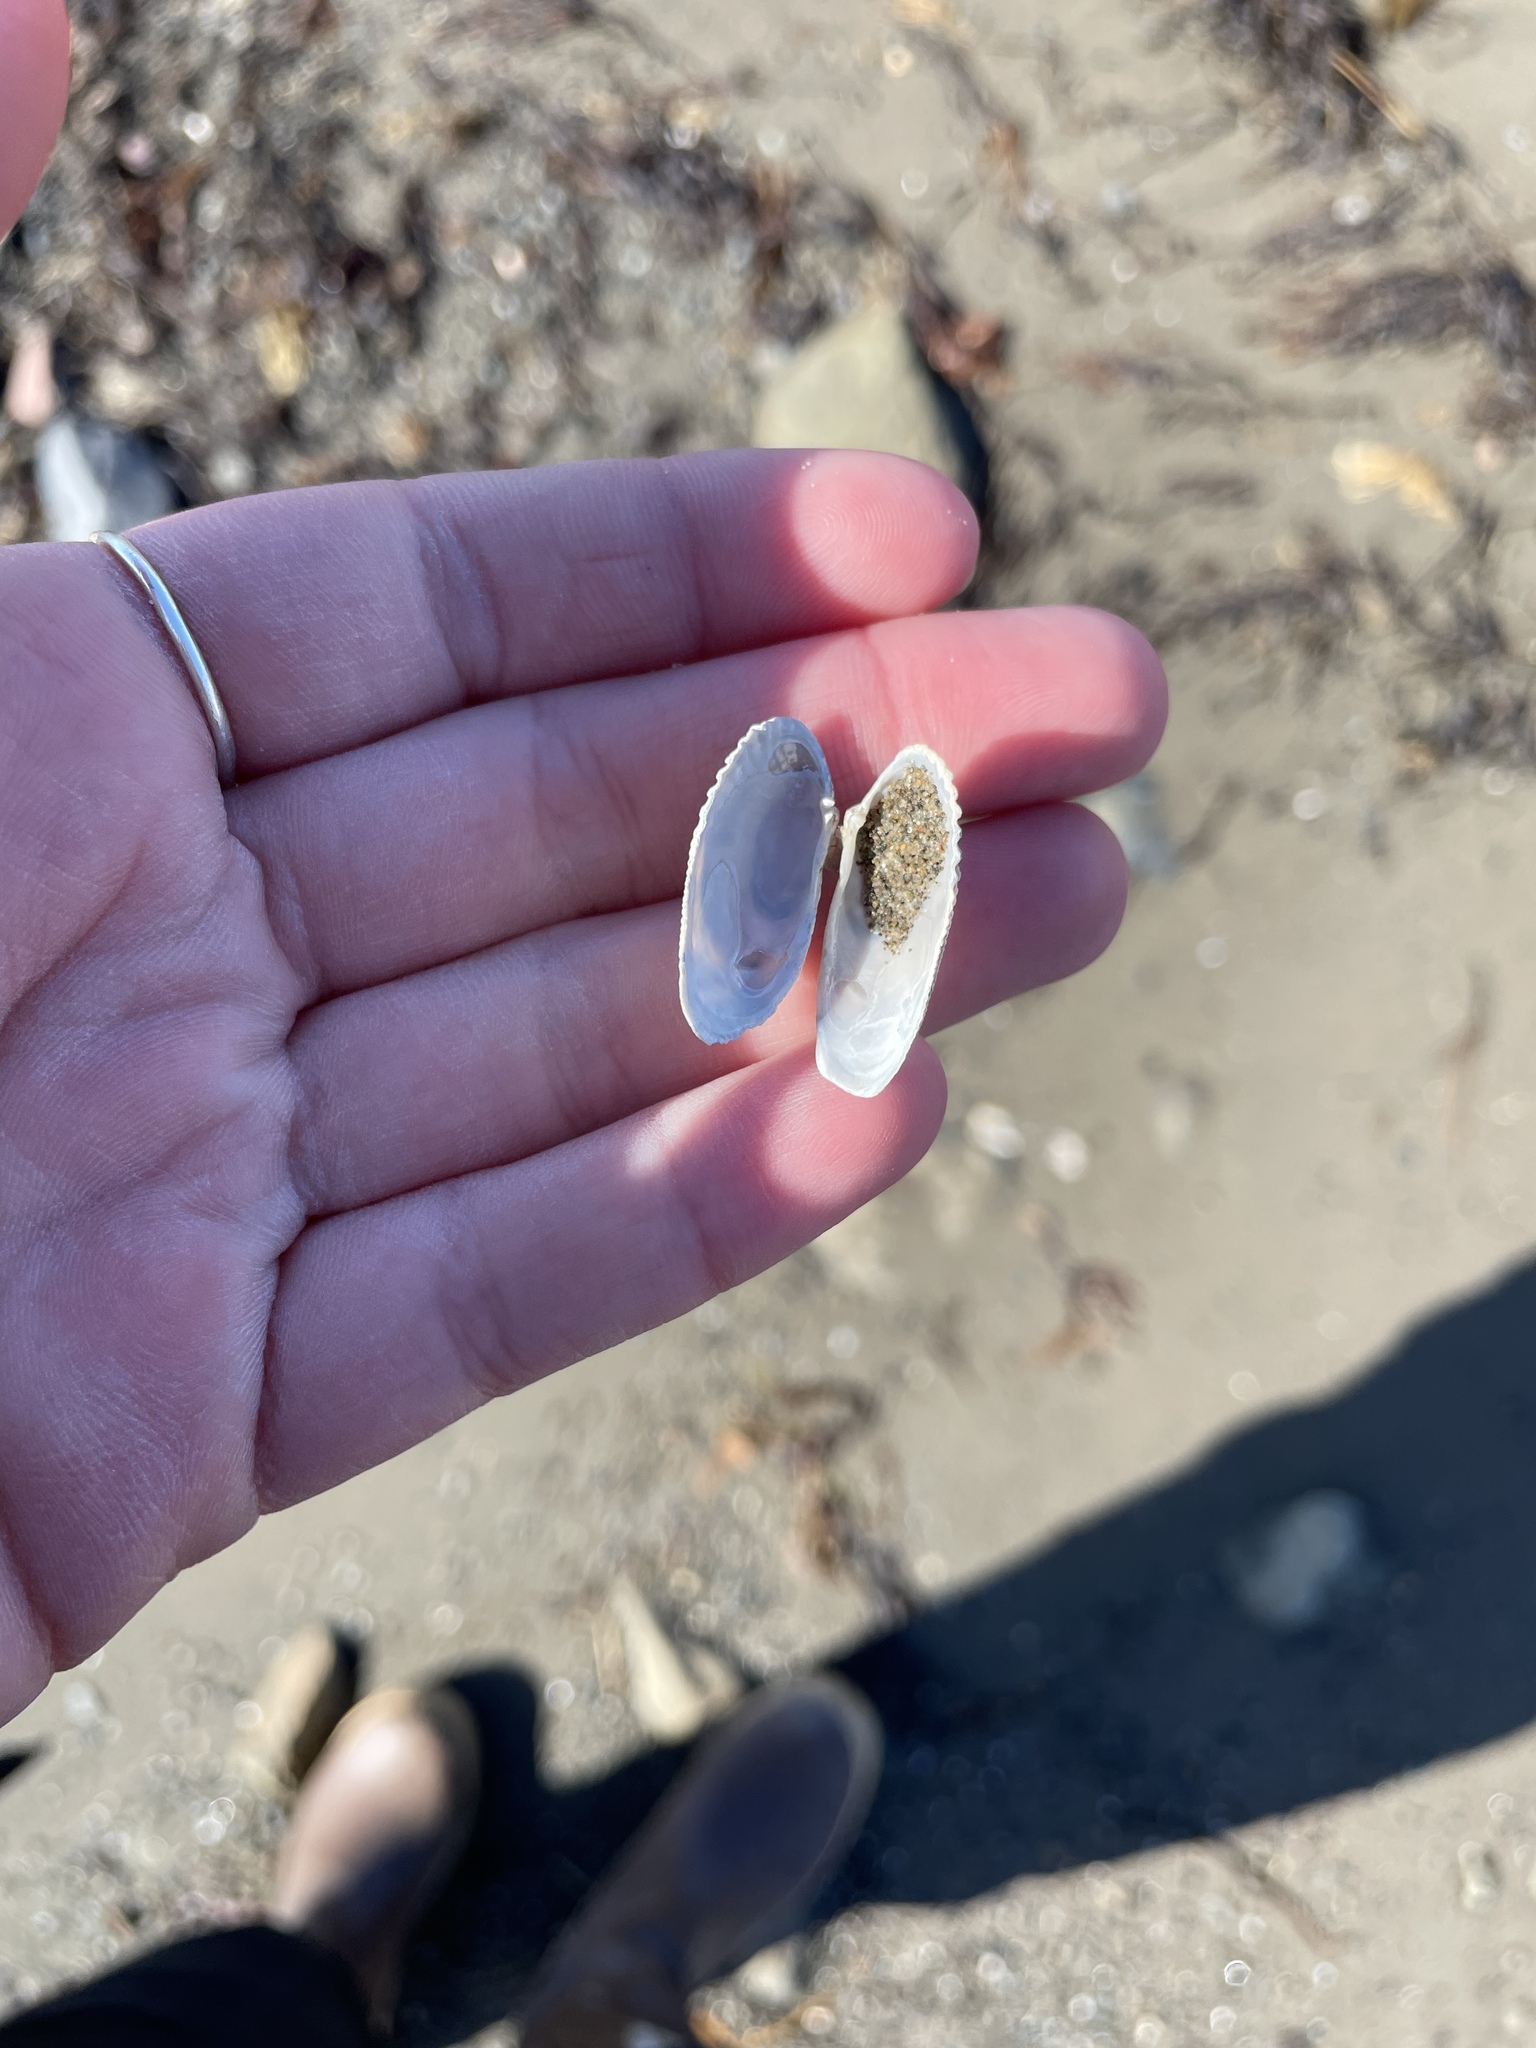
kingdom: Animalia
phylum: Mollusca
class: Bivalvia
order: Venerida
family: Veneridae
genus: Petricolaria
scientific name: Petricolaria pholadiformis
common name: American piddock
